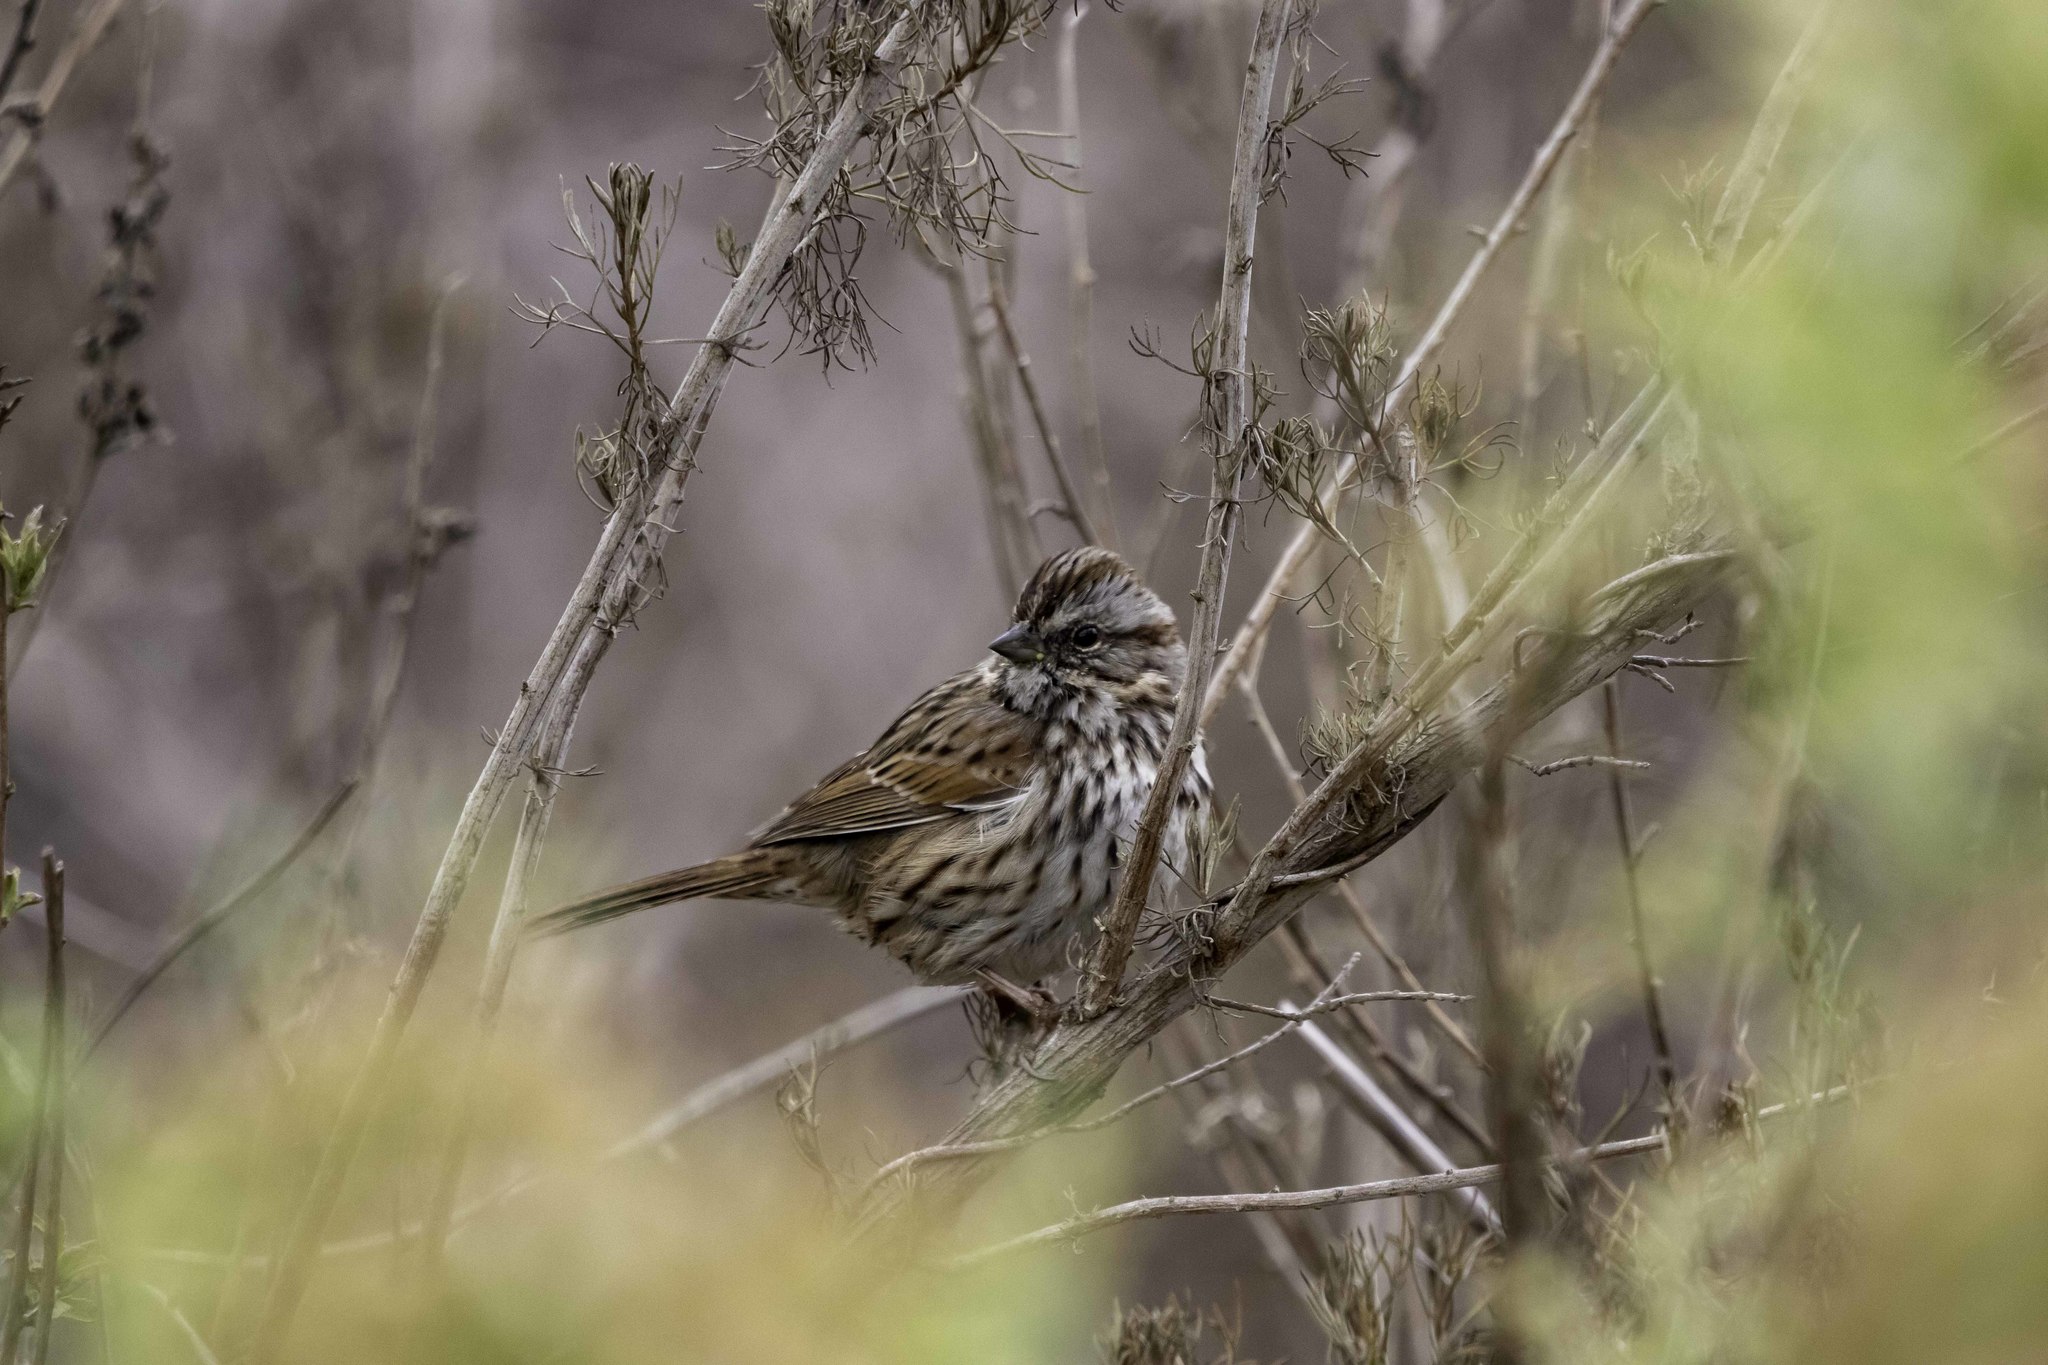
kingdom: Animalia
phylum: Chordata
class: Aves
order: Passeriformes
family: Passerellidae
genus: Melospiza
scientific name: Melospiza melodia
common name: Song sparrow
